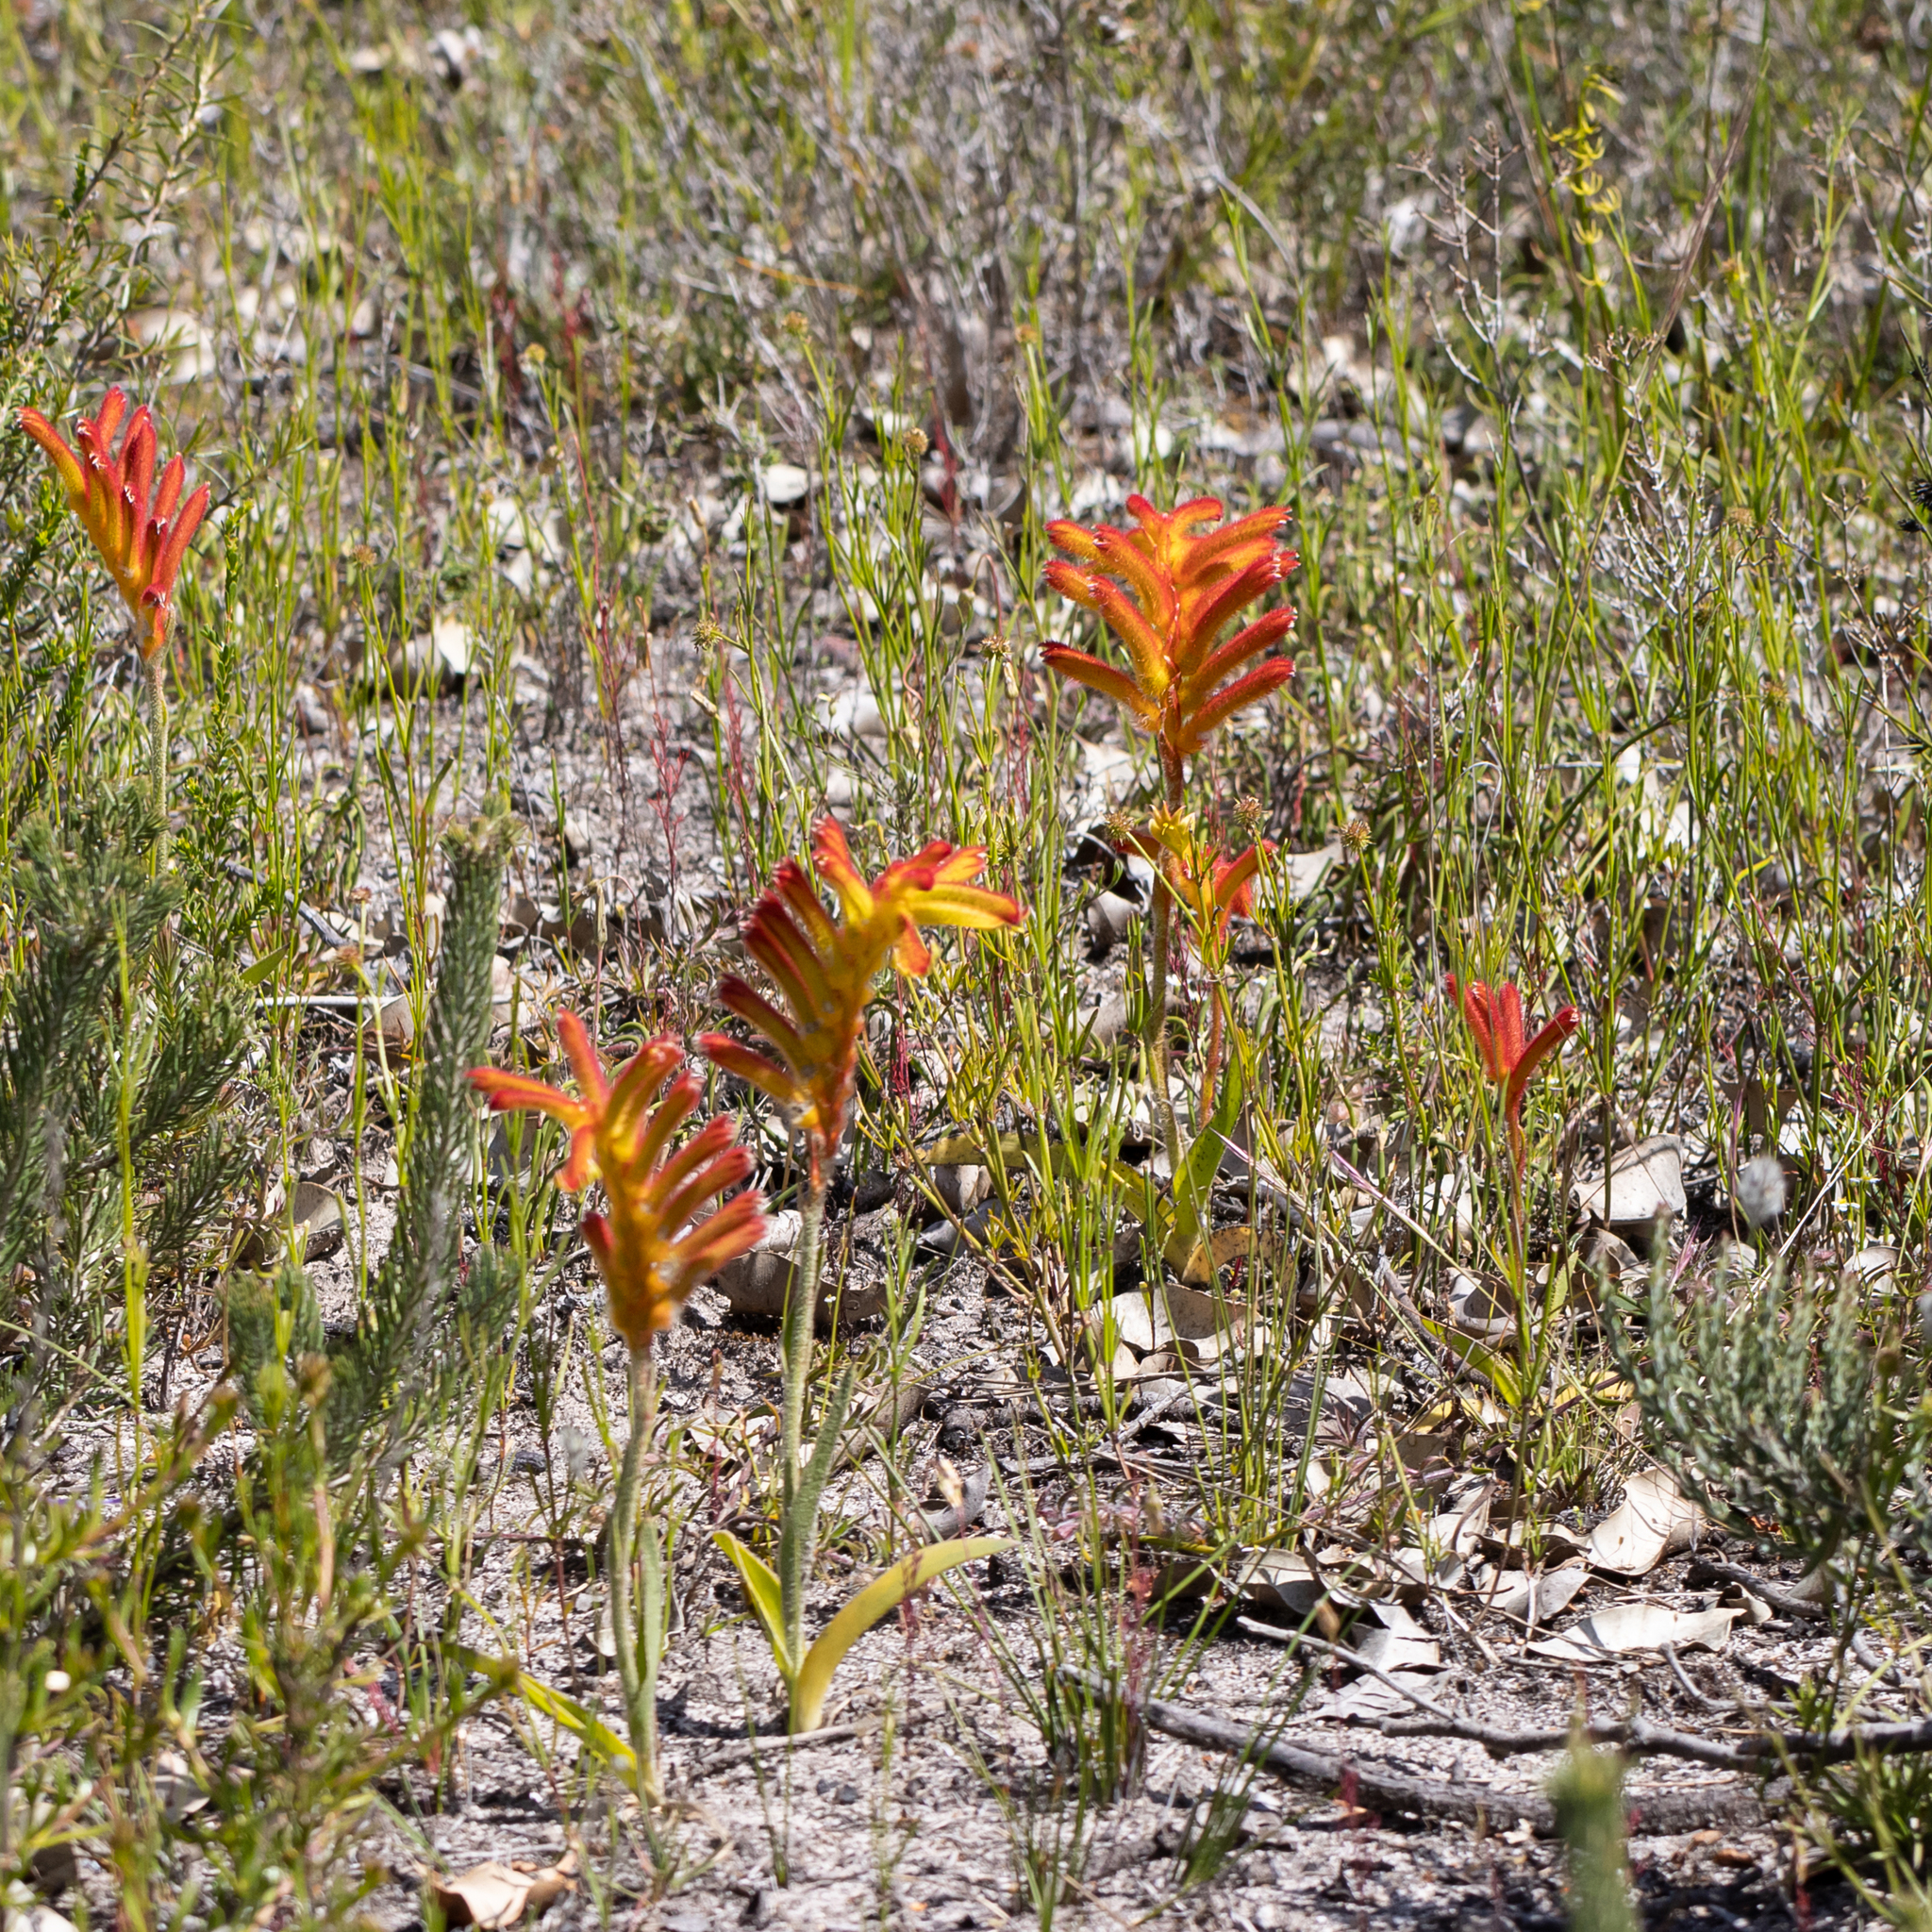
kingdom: Plantae
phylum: Tracheophyta
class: Liliopsida
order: Commelinales
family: Haemodoraceae
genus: Anigozanthos
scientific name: Anigozanthos humilis
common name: Cat's-paw
